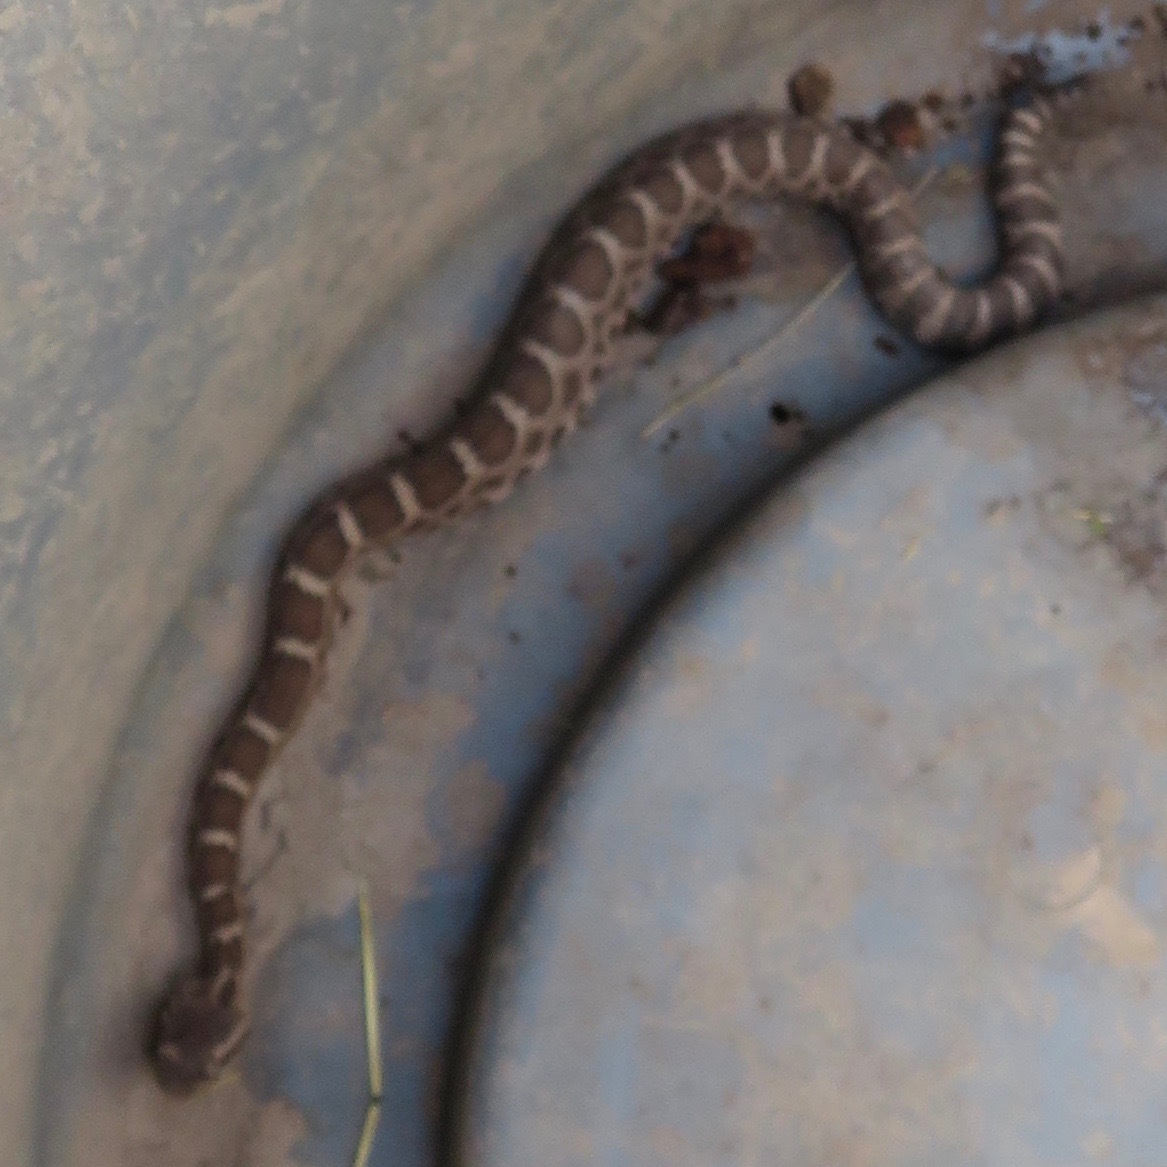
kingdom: Animalia
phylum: Chordata
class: Squamata
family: Viperidae
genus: Crotalus
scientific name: Crotalus oreganus
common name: Abyssus
